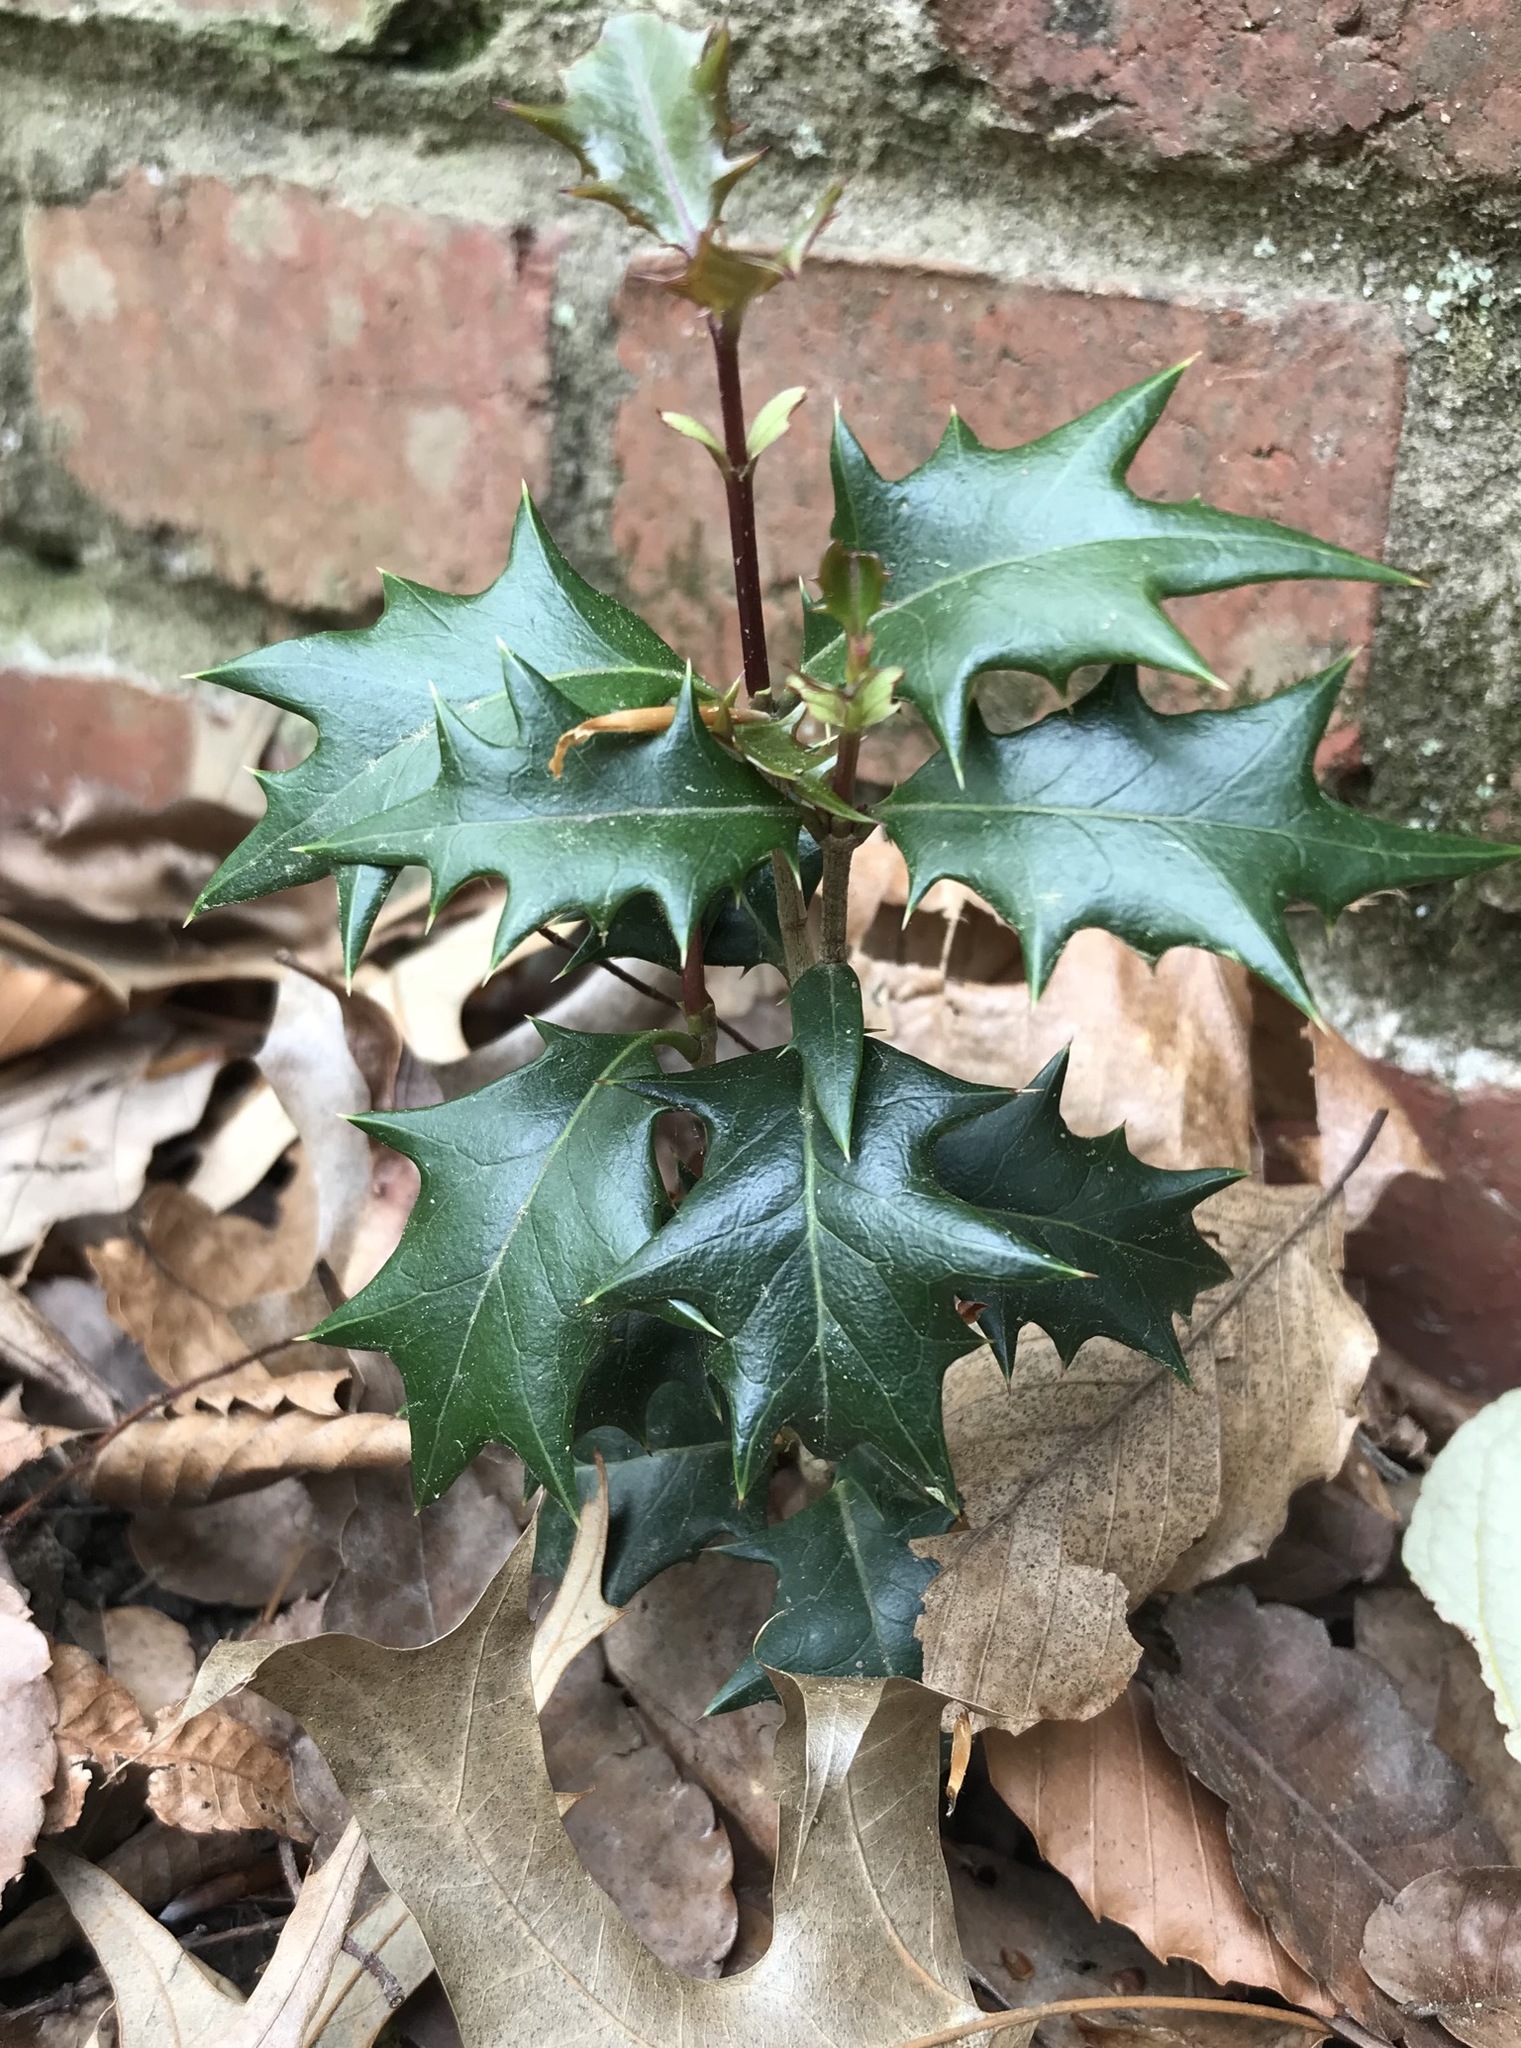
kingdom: Plantae
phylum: Tracheophyta
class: Magnoliopsida
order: Lamiales
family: Oleaceae
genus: Osmanthus
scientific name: Osmanthus heterophyllus
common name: Holly osmanthus
